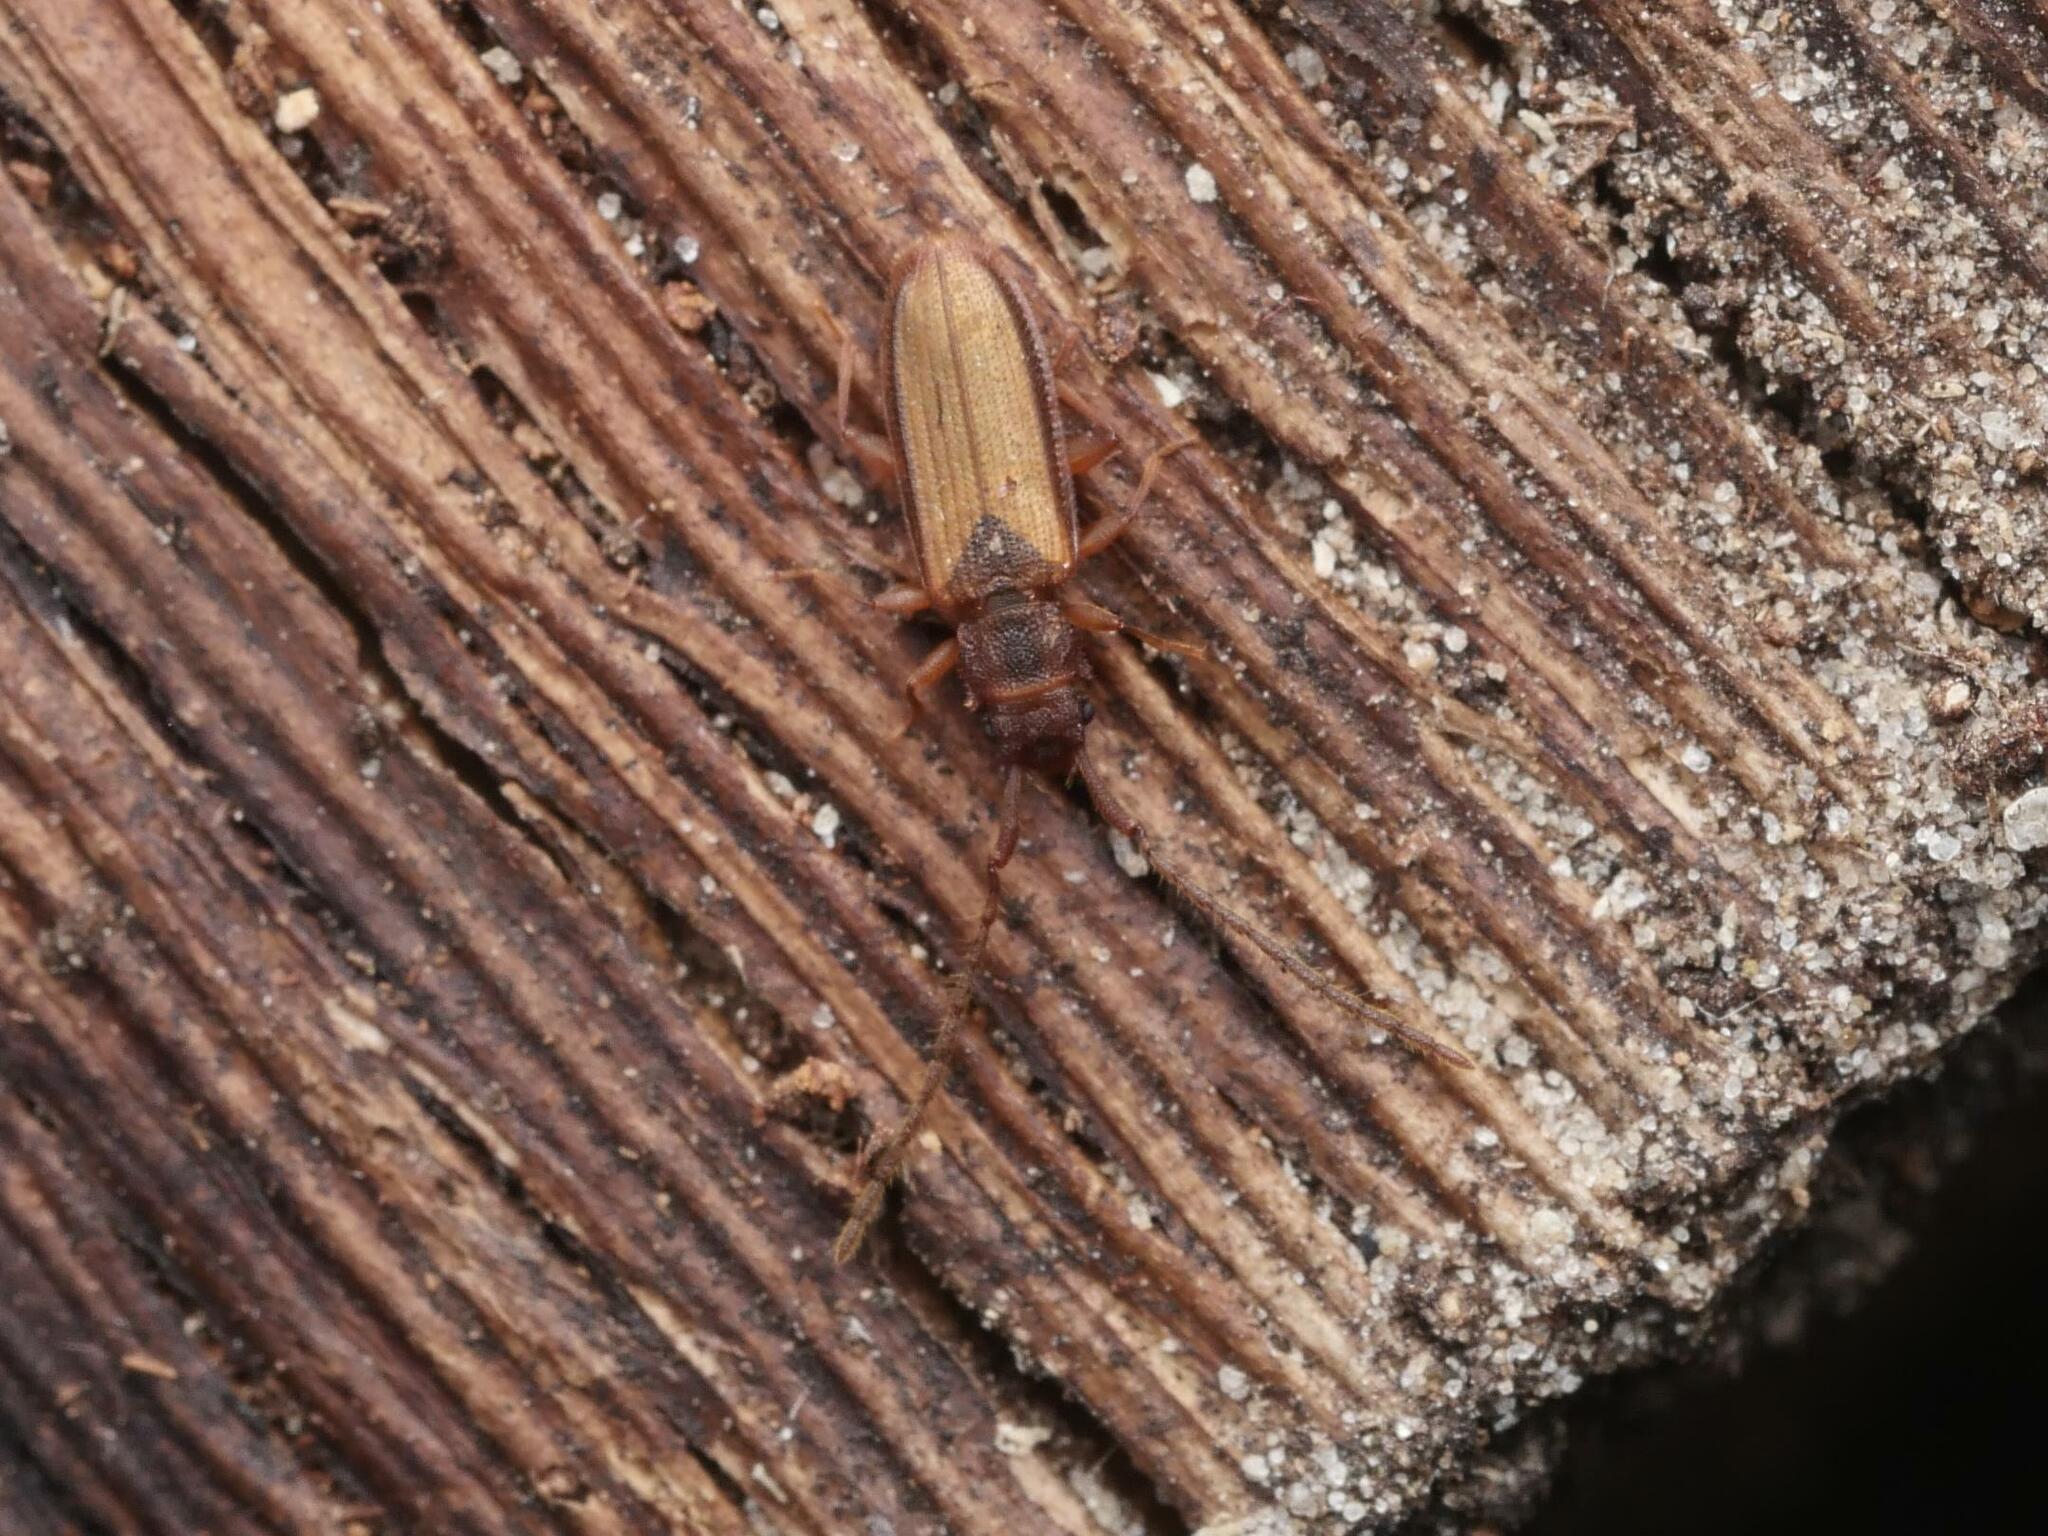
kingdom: Animalia
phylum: Arthropoda
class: Insecta
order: Coleoptera
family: Silvanidae
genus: Uleiota
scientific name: Uleiota planatus
